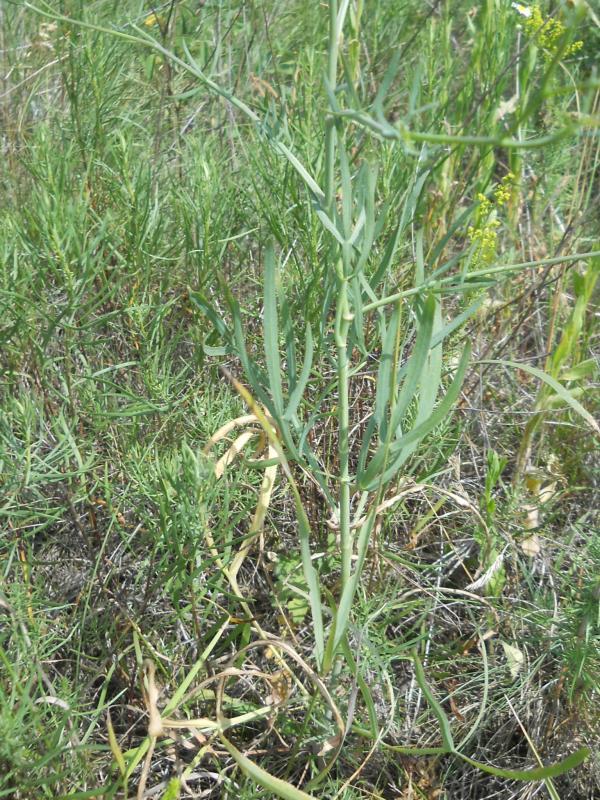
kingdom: Plantae
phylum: Tracheophyta
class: Magnoliopsida
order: Apiales
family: Apiaceae
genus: Falcaria
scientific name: Falcaria vulgaris
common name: Longleaf
